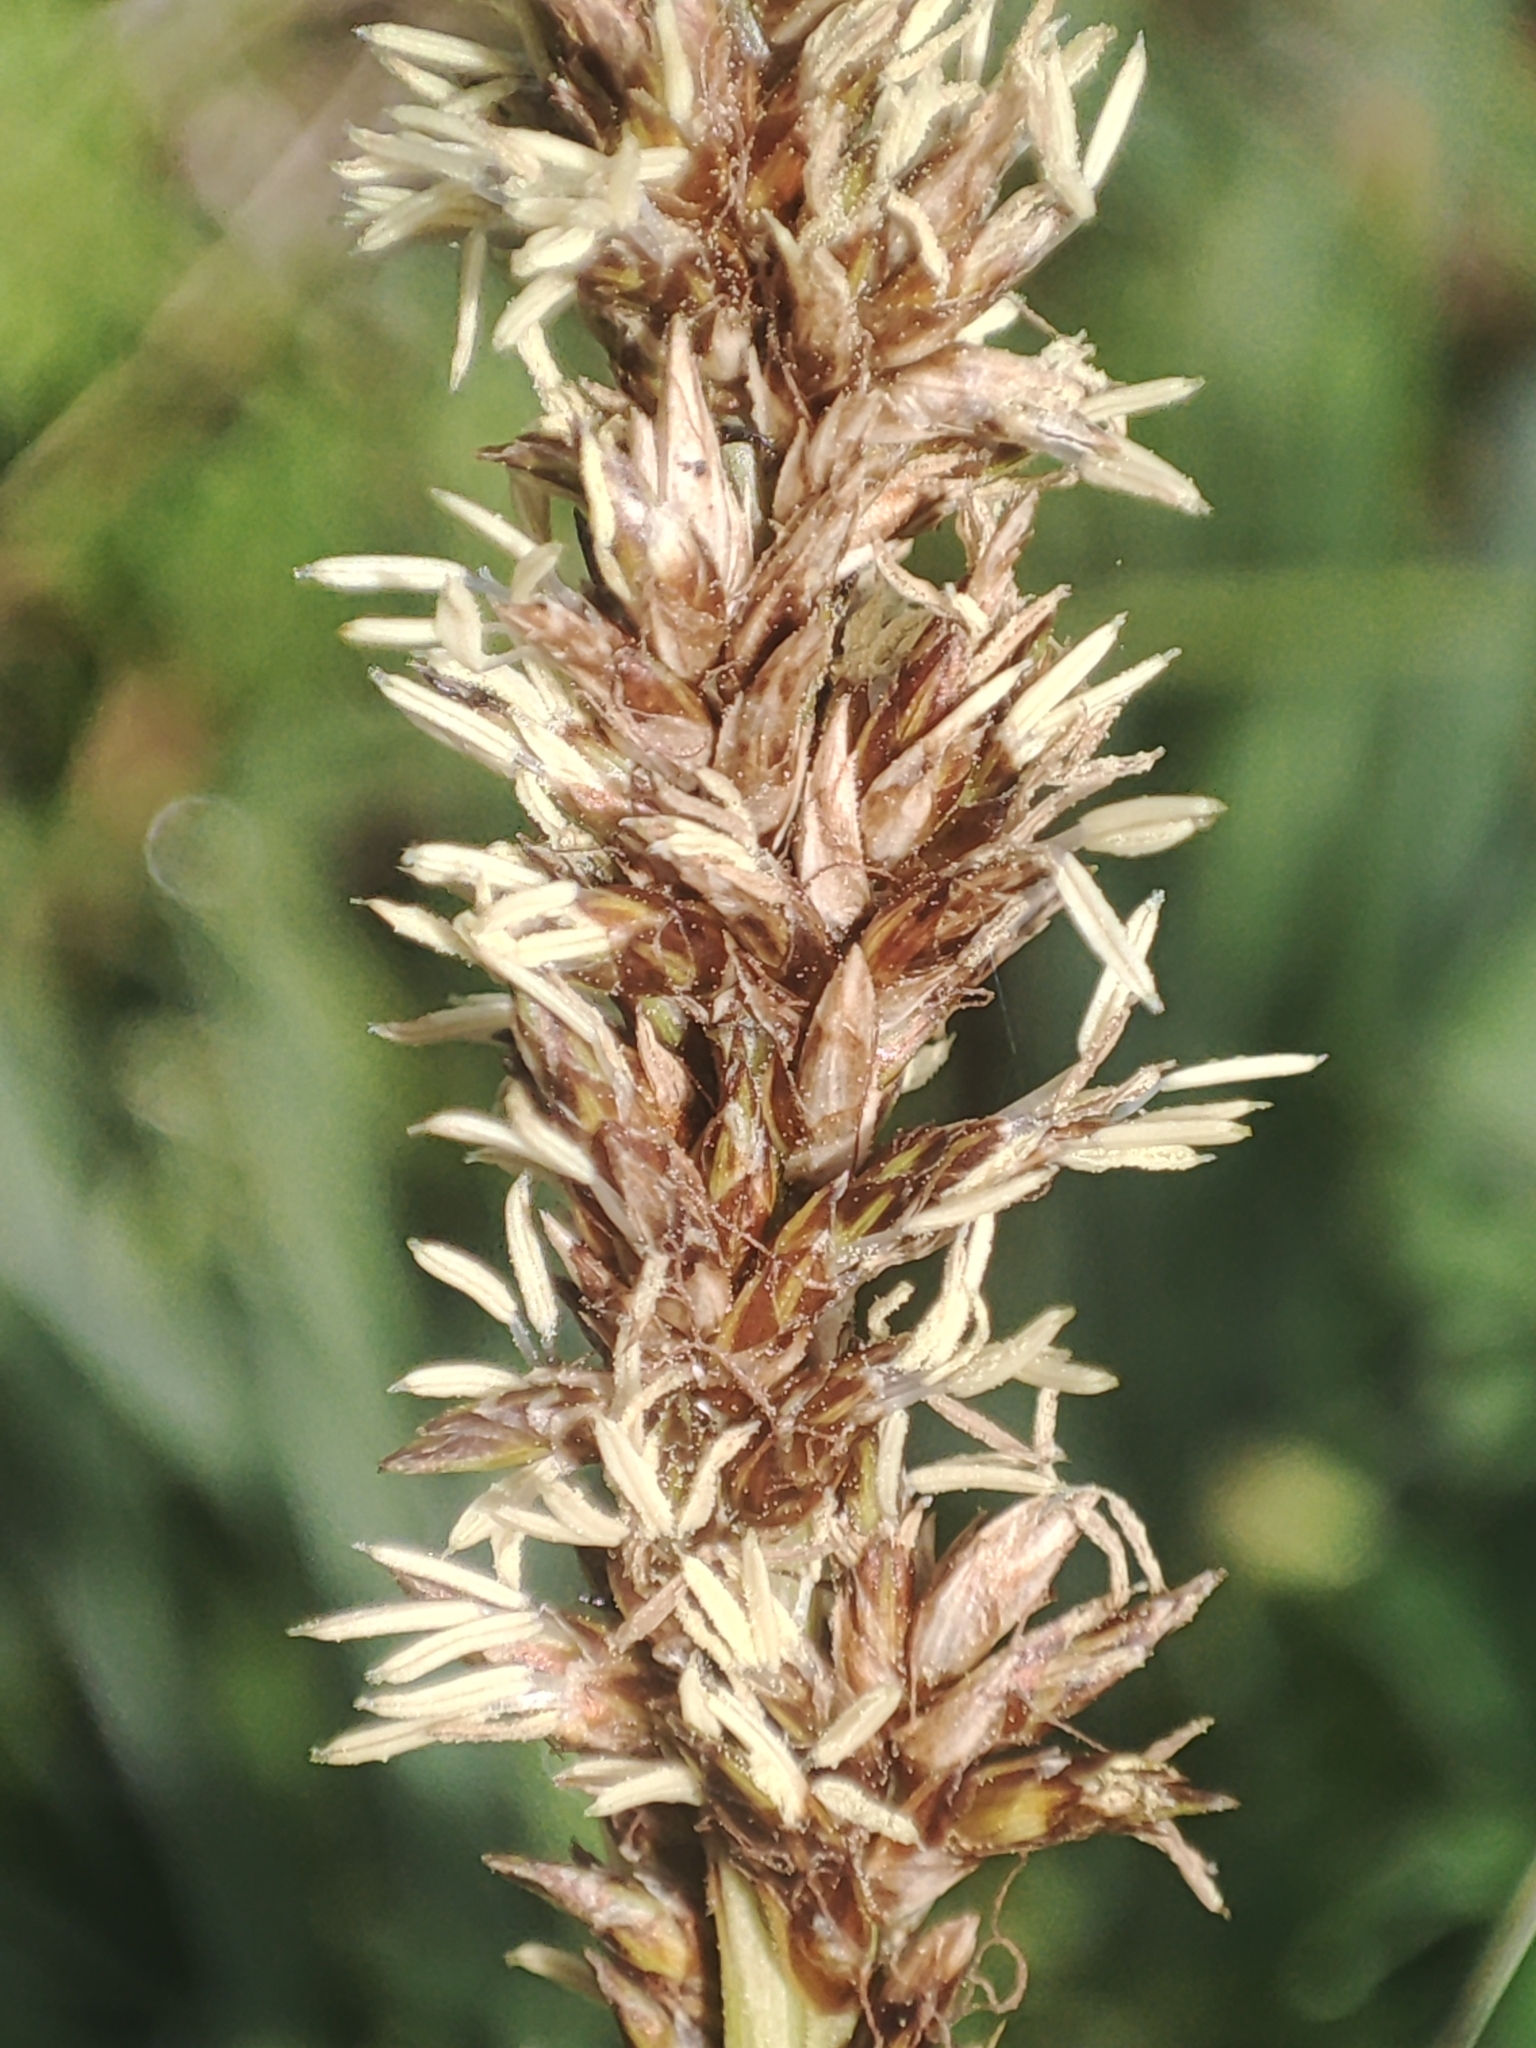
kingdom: Plantae
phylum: Tracheophyta
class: Liliopsida
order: Poales
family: Cyperaceae
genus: Carex
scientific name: Carex appressa
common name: Tussock sedge
